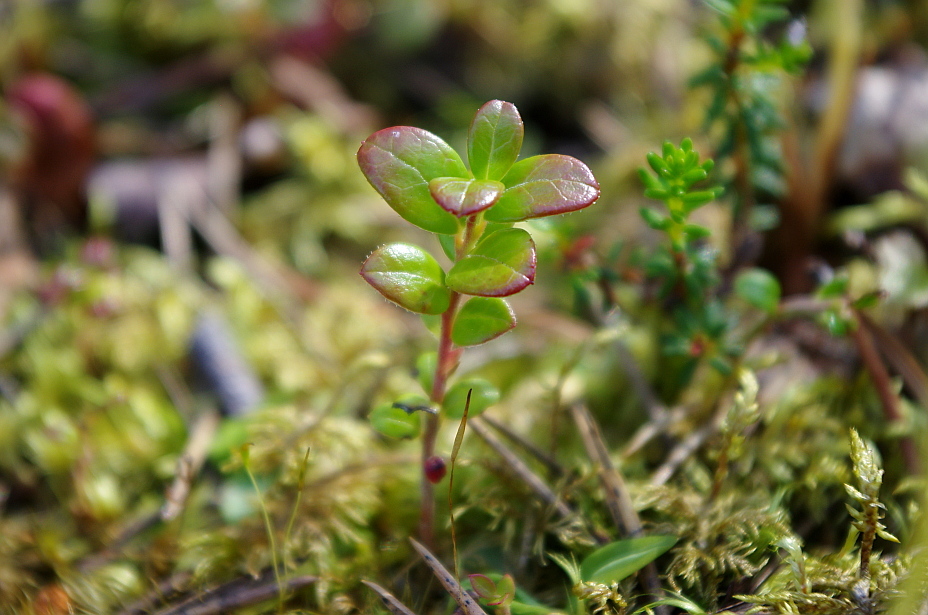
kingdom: Plantae
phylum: Tracheophyta
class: Magnoliopsida
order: Ericales
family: Ericaceae
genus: Vaccinium
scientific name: Vaccinium vitis-idaea
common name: Cowberry
